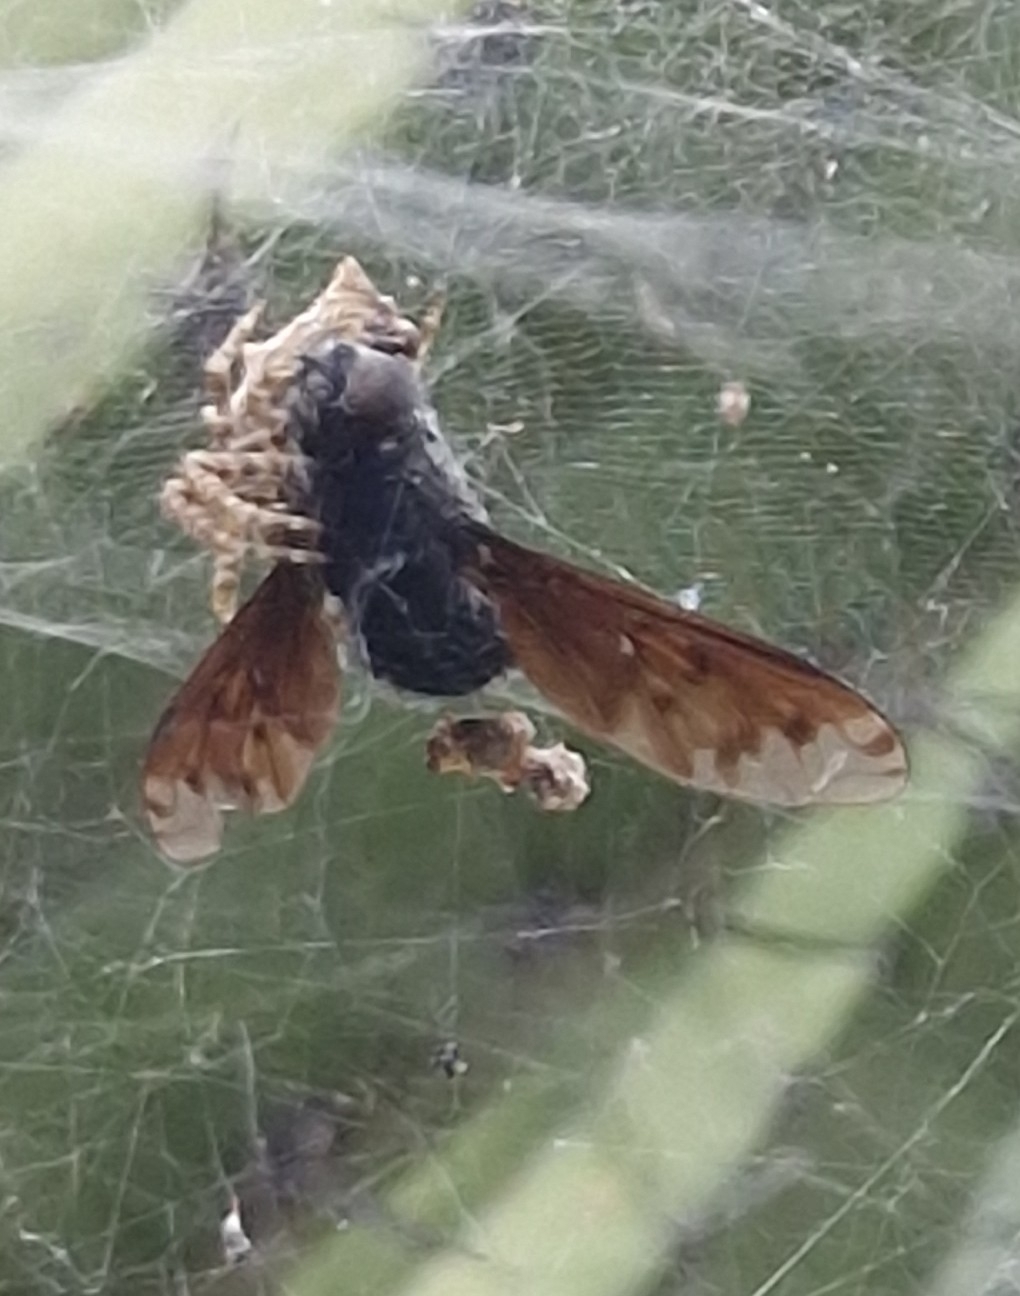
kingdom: Animalia
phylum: Arthropoda
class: Arachnida
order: Araneae
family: Araneidae
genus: Cyrtophora
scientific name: Cyrtophora citricola
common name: Orb weavers
